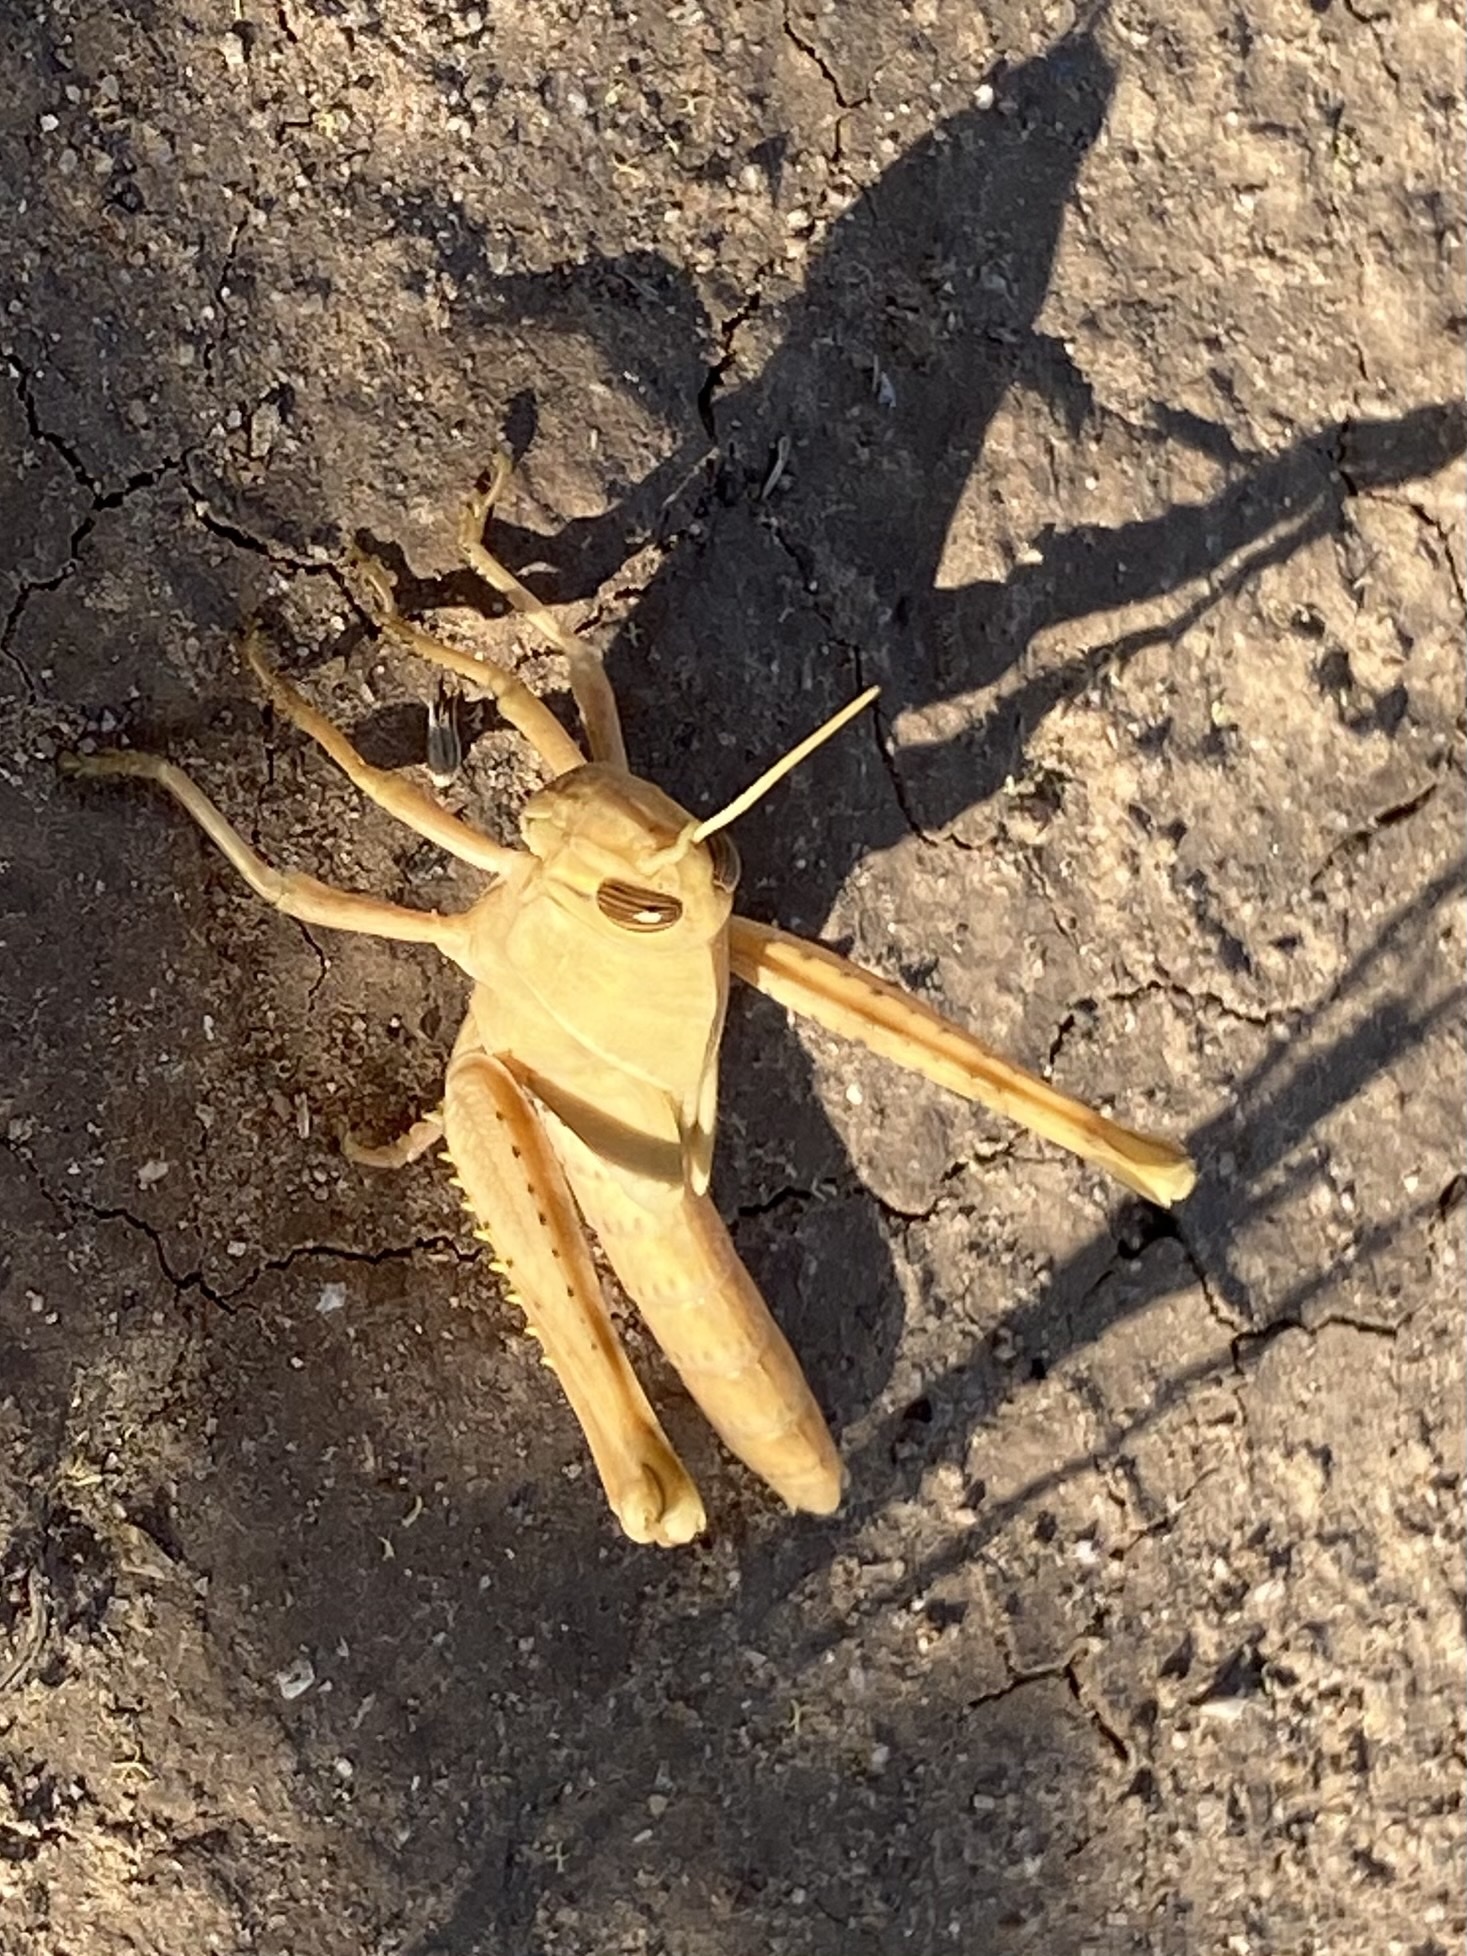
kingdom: Animalia
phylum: Arthropoda
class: Insecta
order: Orthoptera
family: Acrididae
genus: Schistocerca
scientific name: Schistocerca nitens
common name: Vagrant grasshopper
